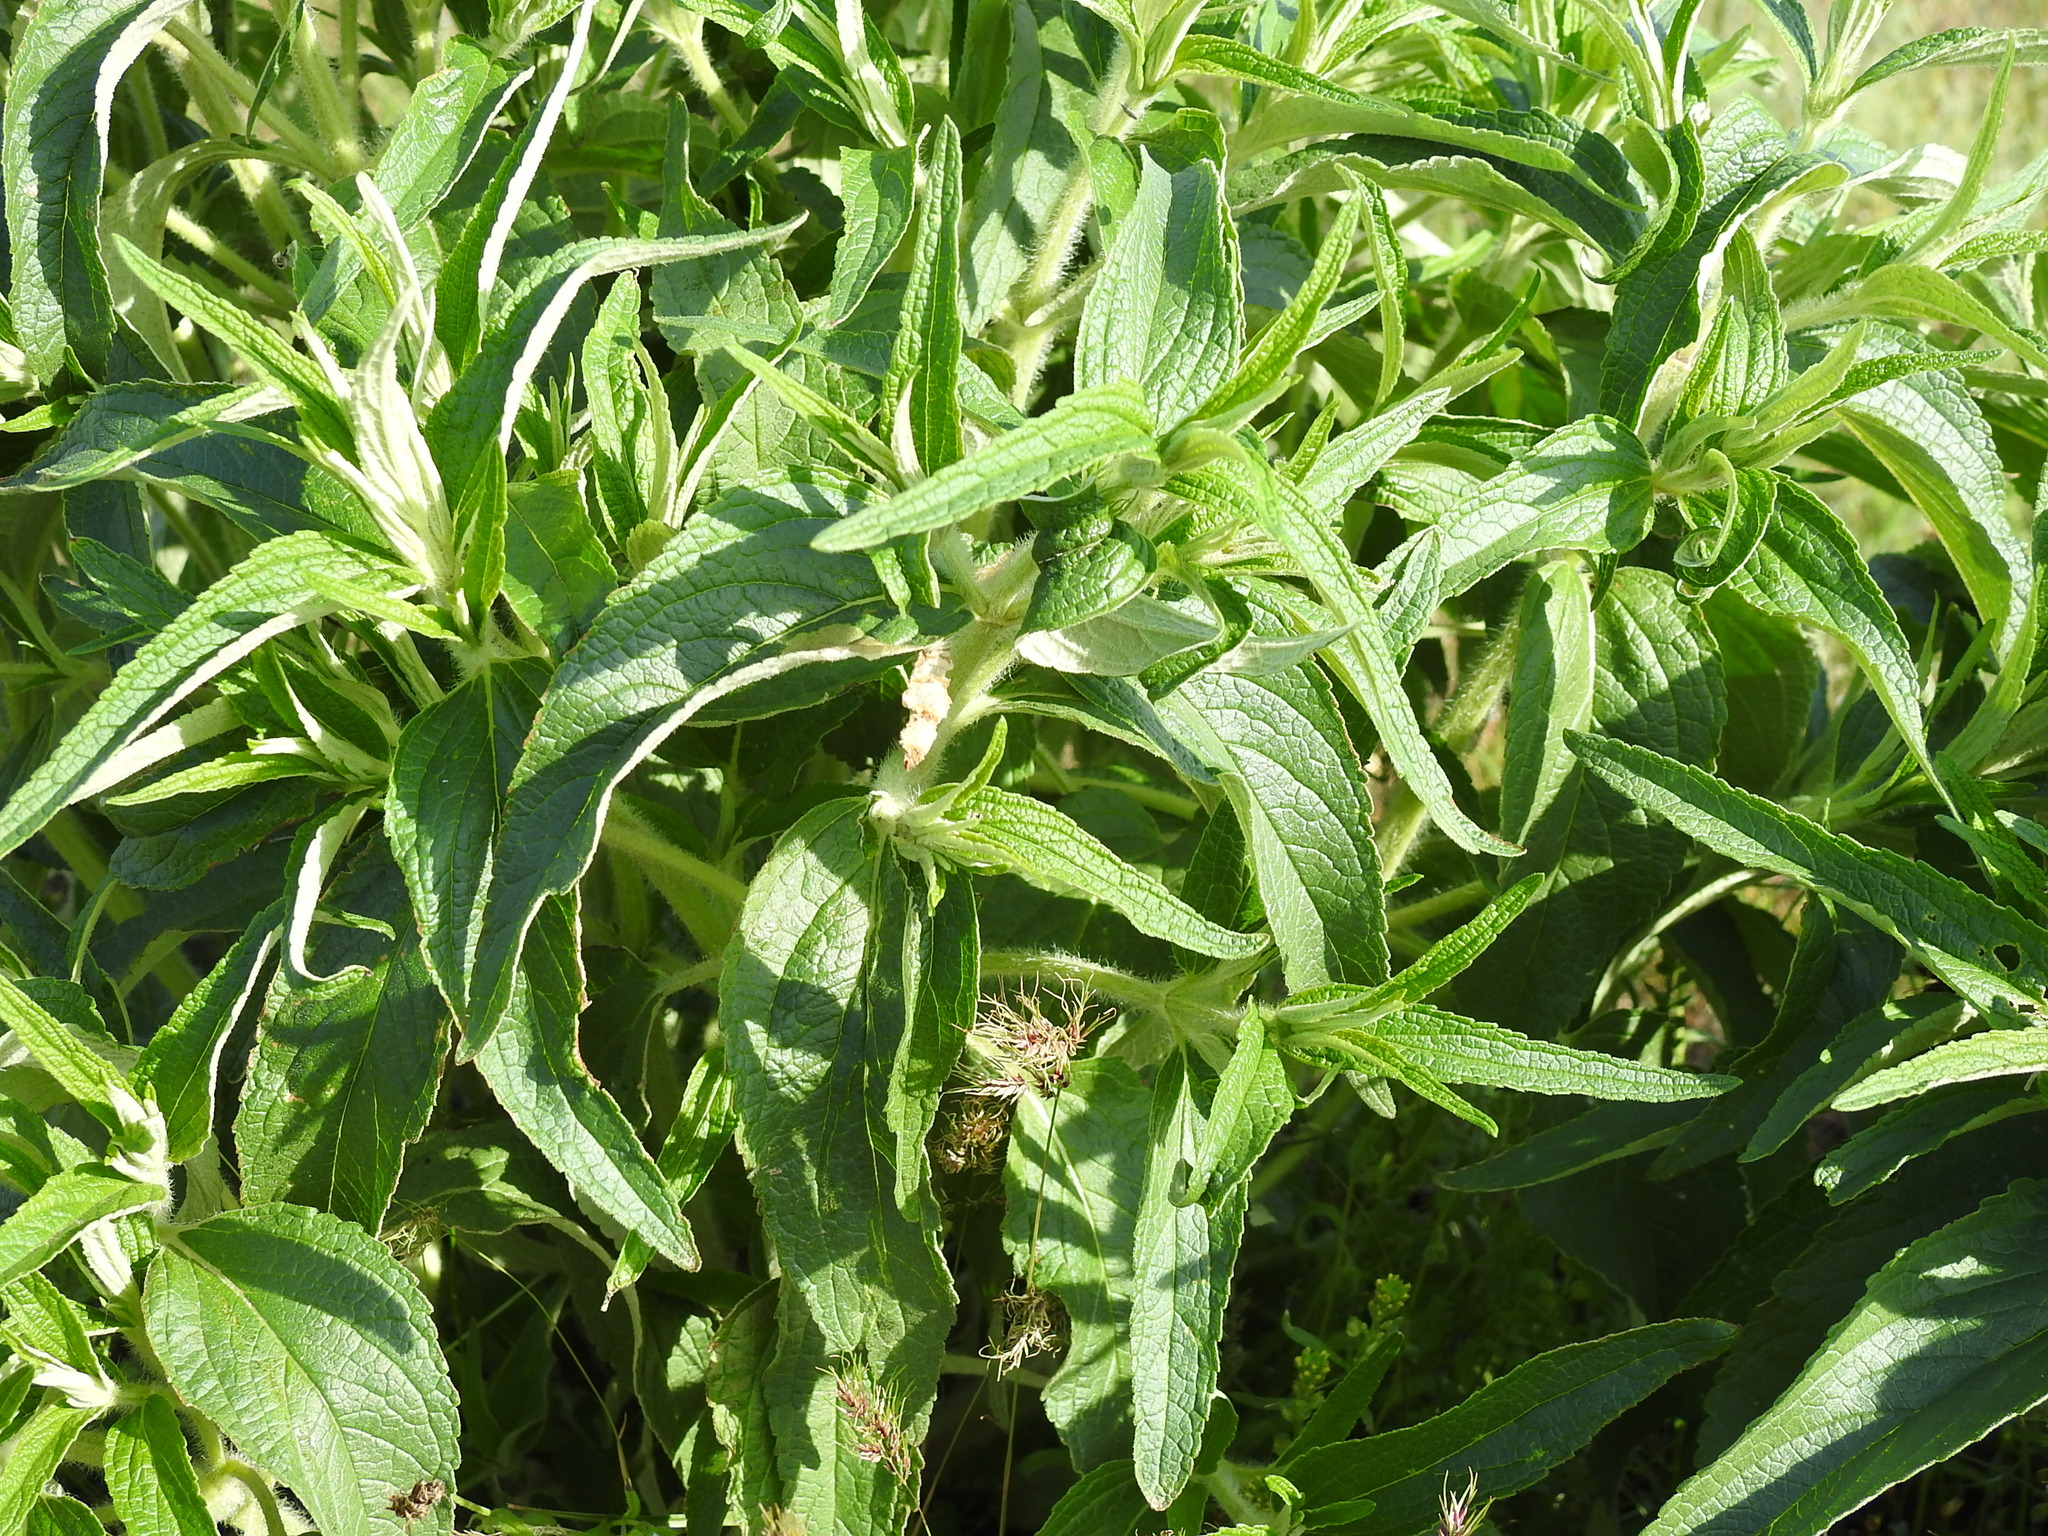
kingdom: Plantae
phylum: Tracheophyta
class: Magnoliopsida
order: Lamiales
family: Lamiaceae
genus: Phlomis
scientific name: Phlomis herba-venti
